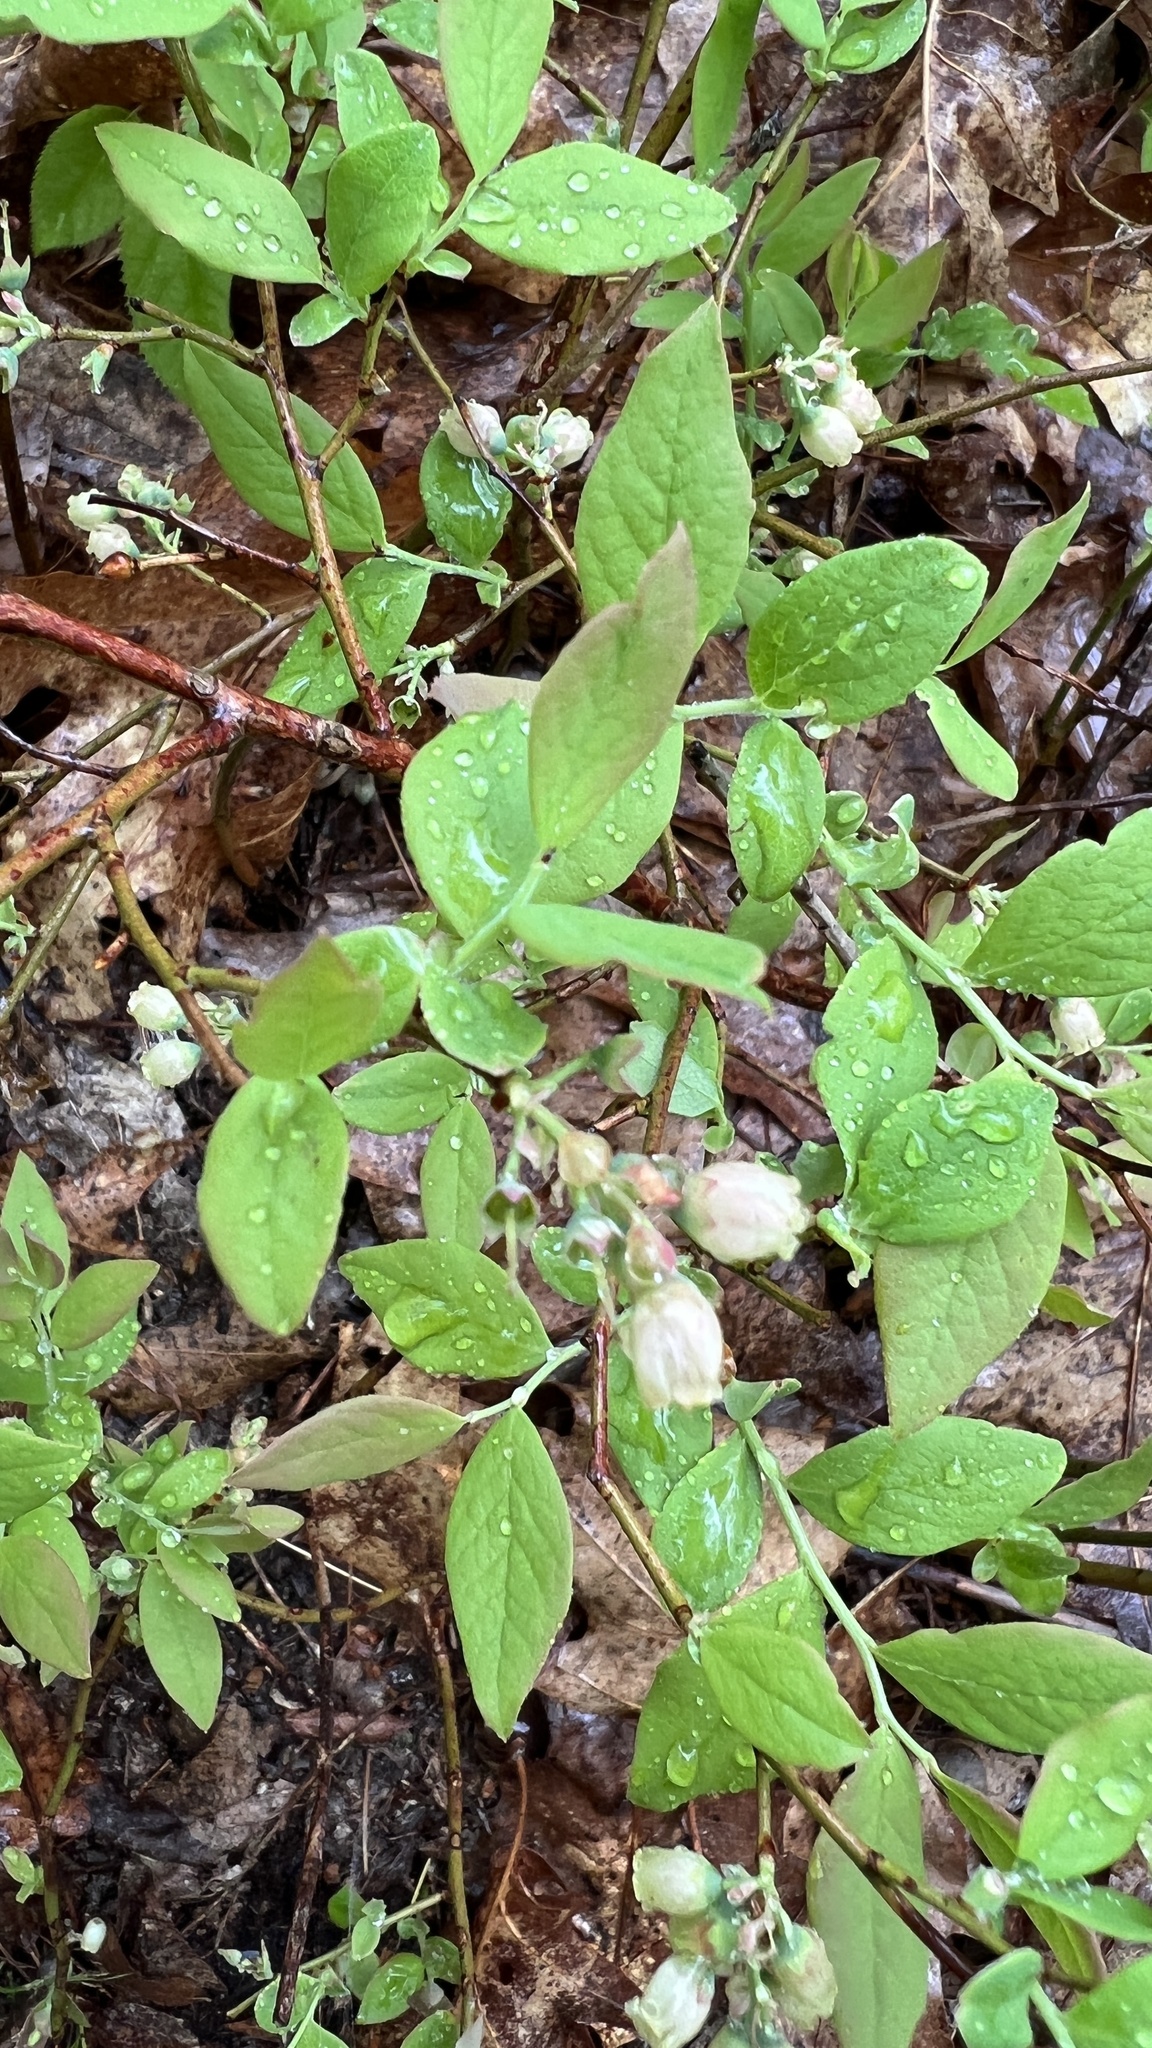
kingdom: Plantae
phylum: Tracheophyta
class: Magnoliopsida
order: Ericales
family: Ericaceae
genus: Vaccinium
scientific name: Vaccinium pallidum
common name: Blue ridge blueberry
